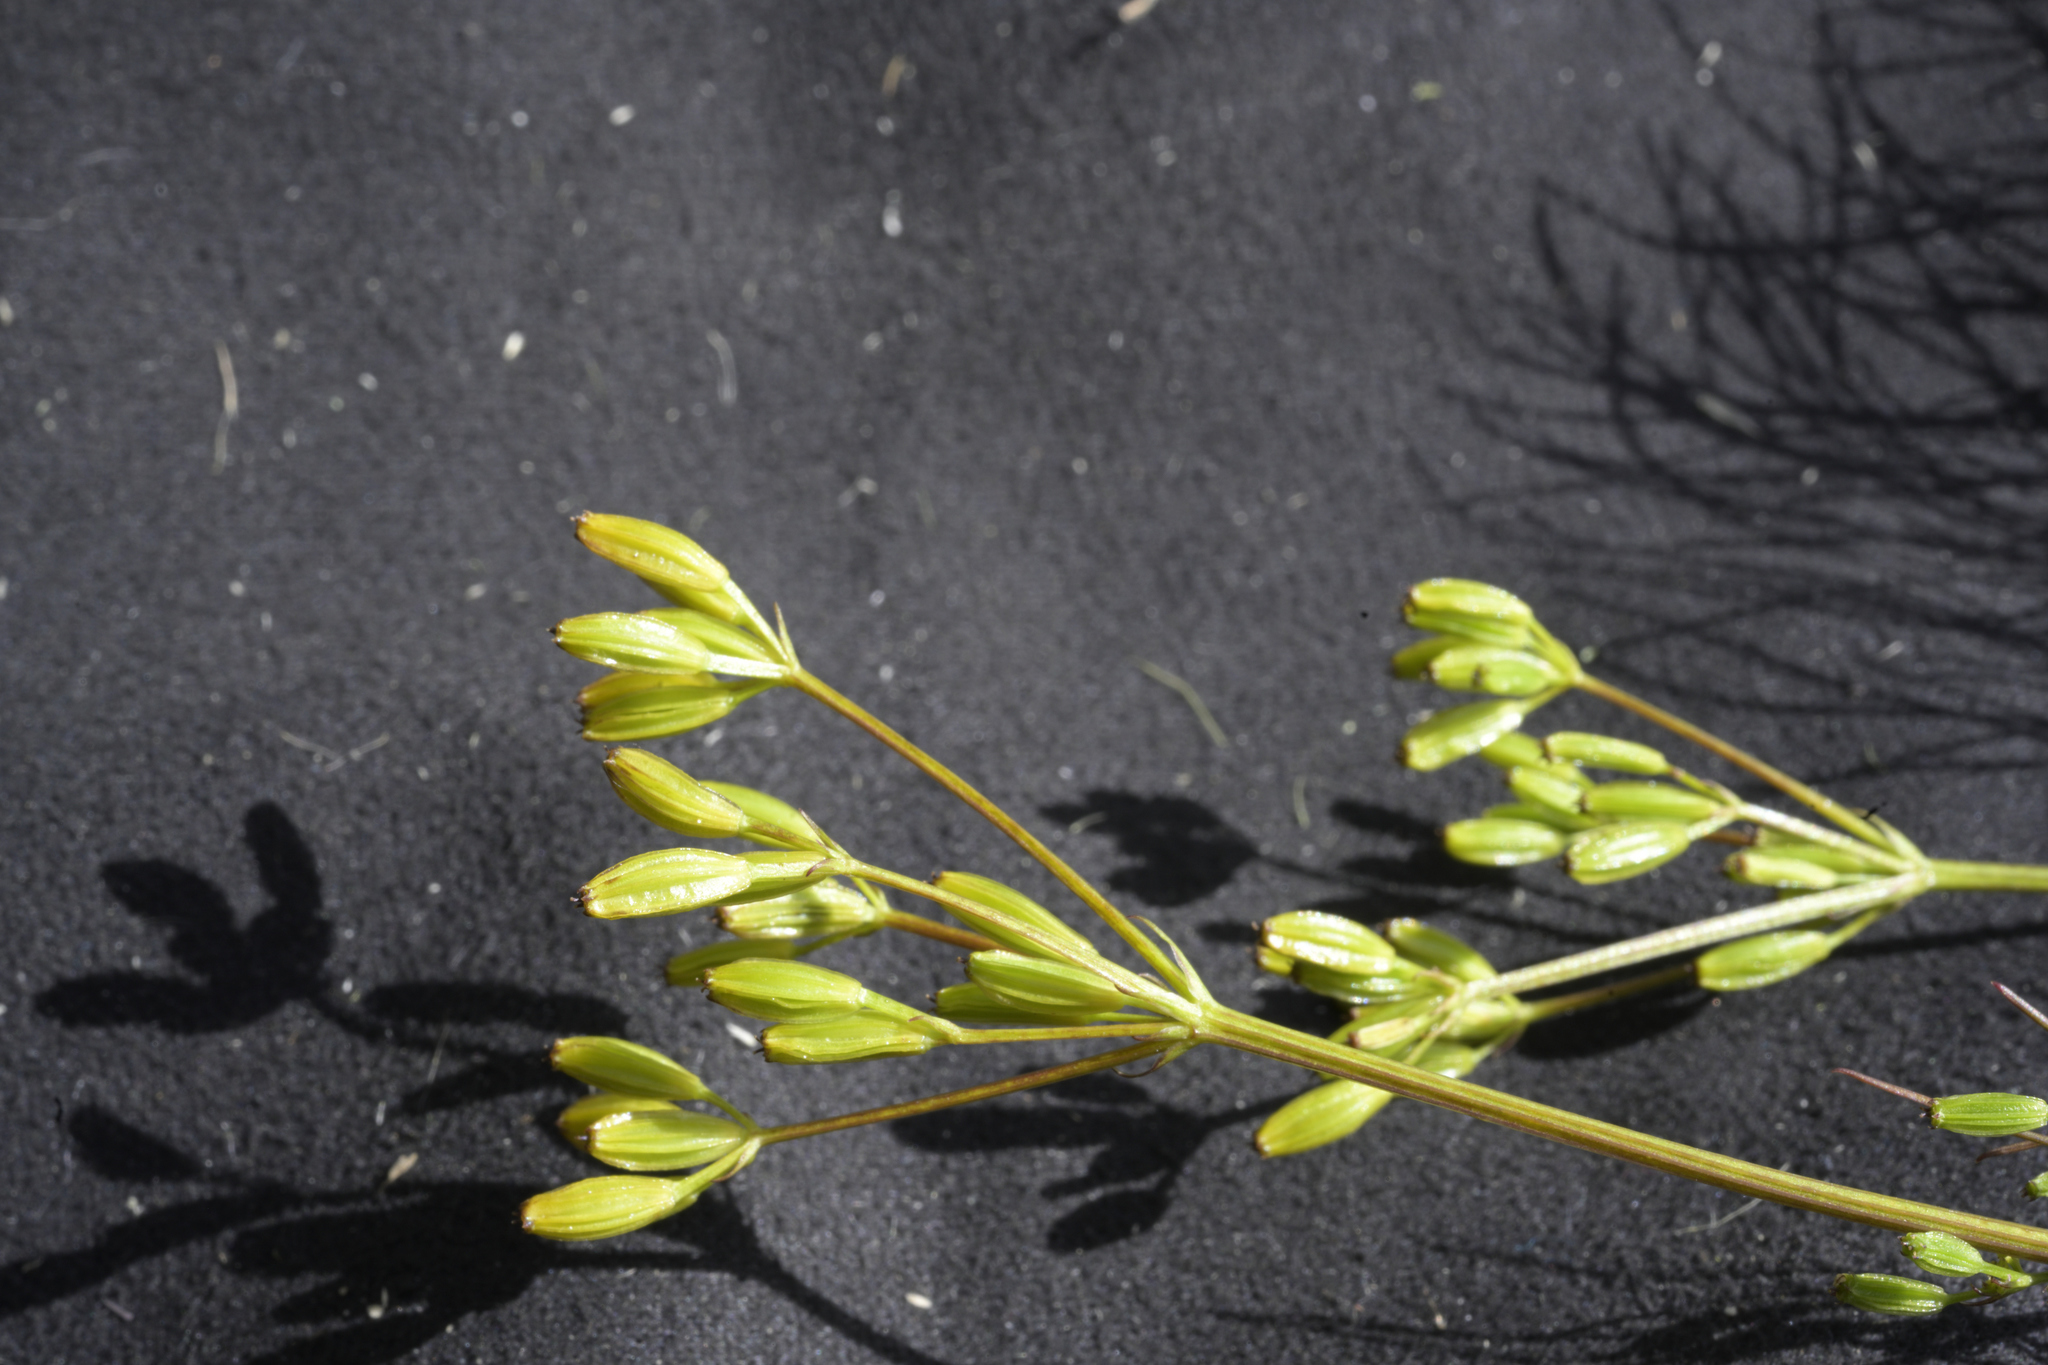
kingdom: Plantae
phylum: Tracheophyta
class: Magnoliopsida
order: Apiales
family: Apiaceae
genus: Anisotome
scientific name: Anisotome filifolia
